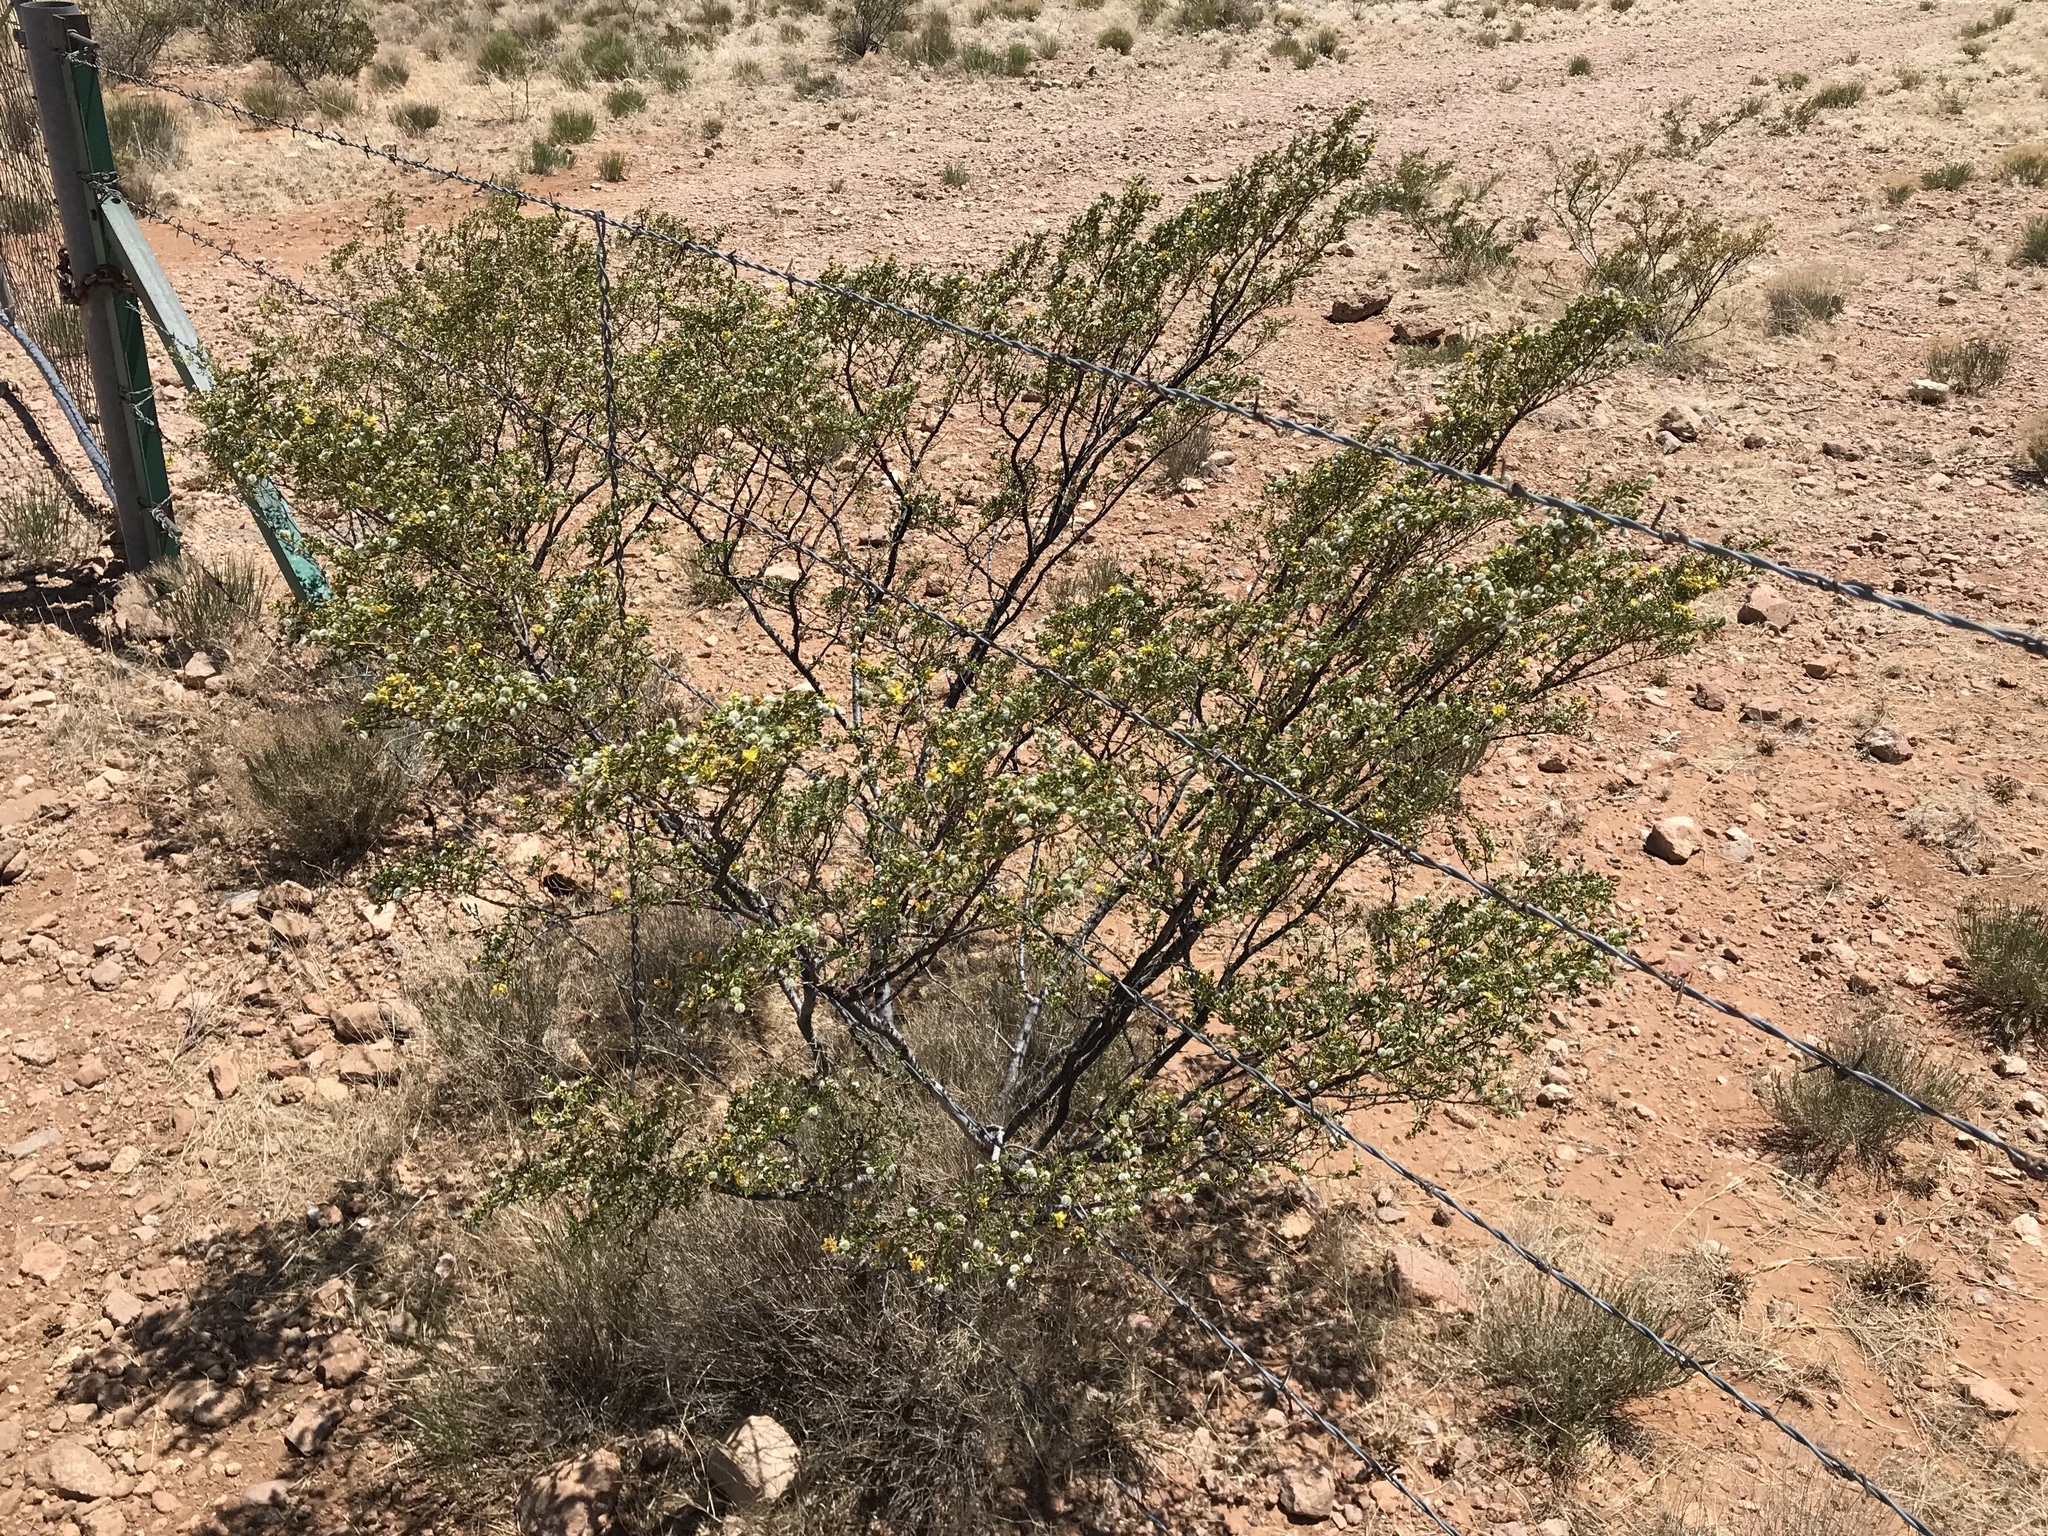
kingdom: Plantae
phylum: Tracheophyta
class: Magnoliopsida
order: Zygophyllales
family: Zygophyllaceae
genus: Larrea
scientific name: Larrea tridentata
